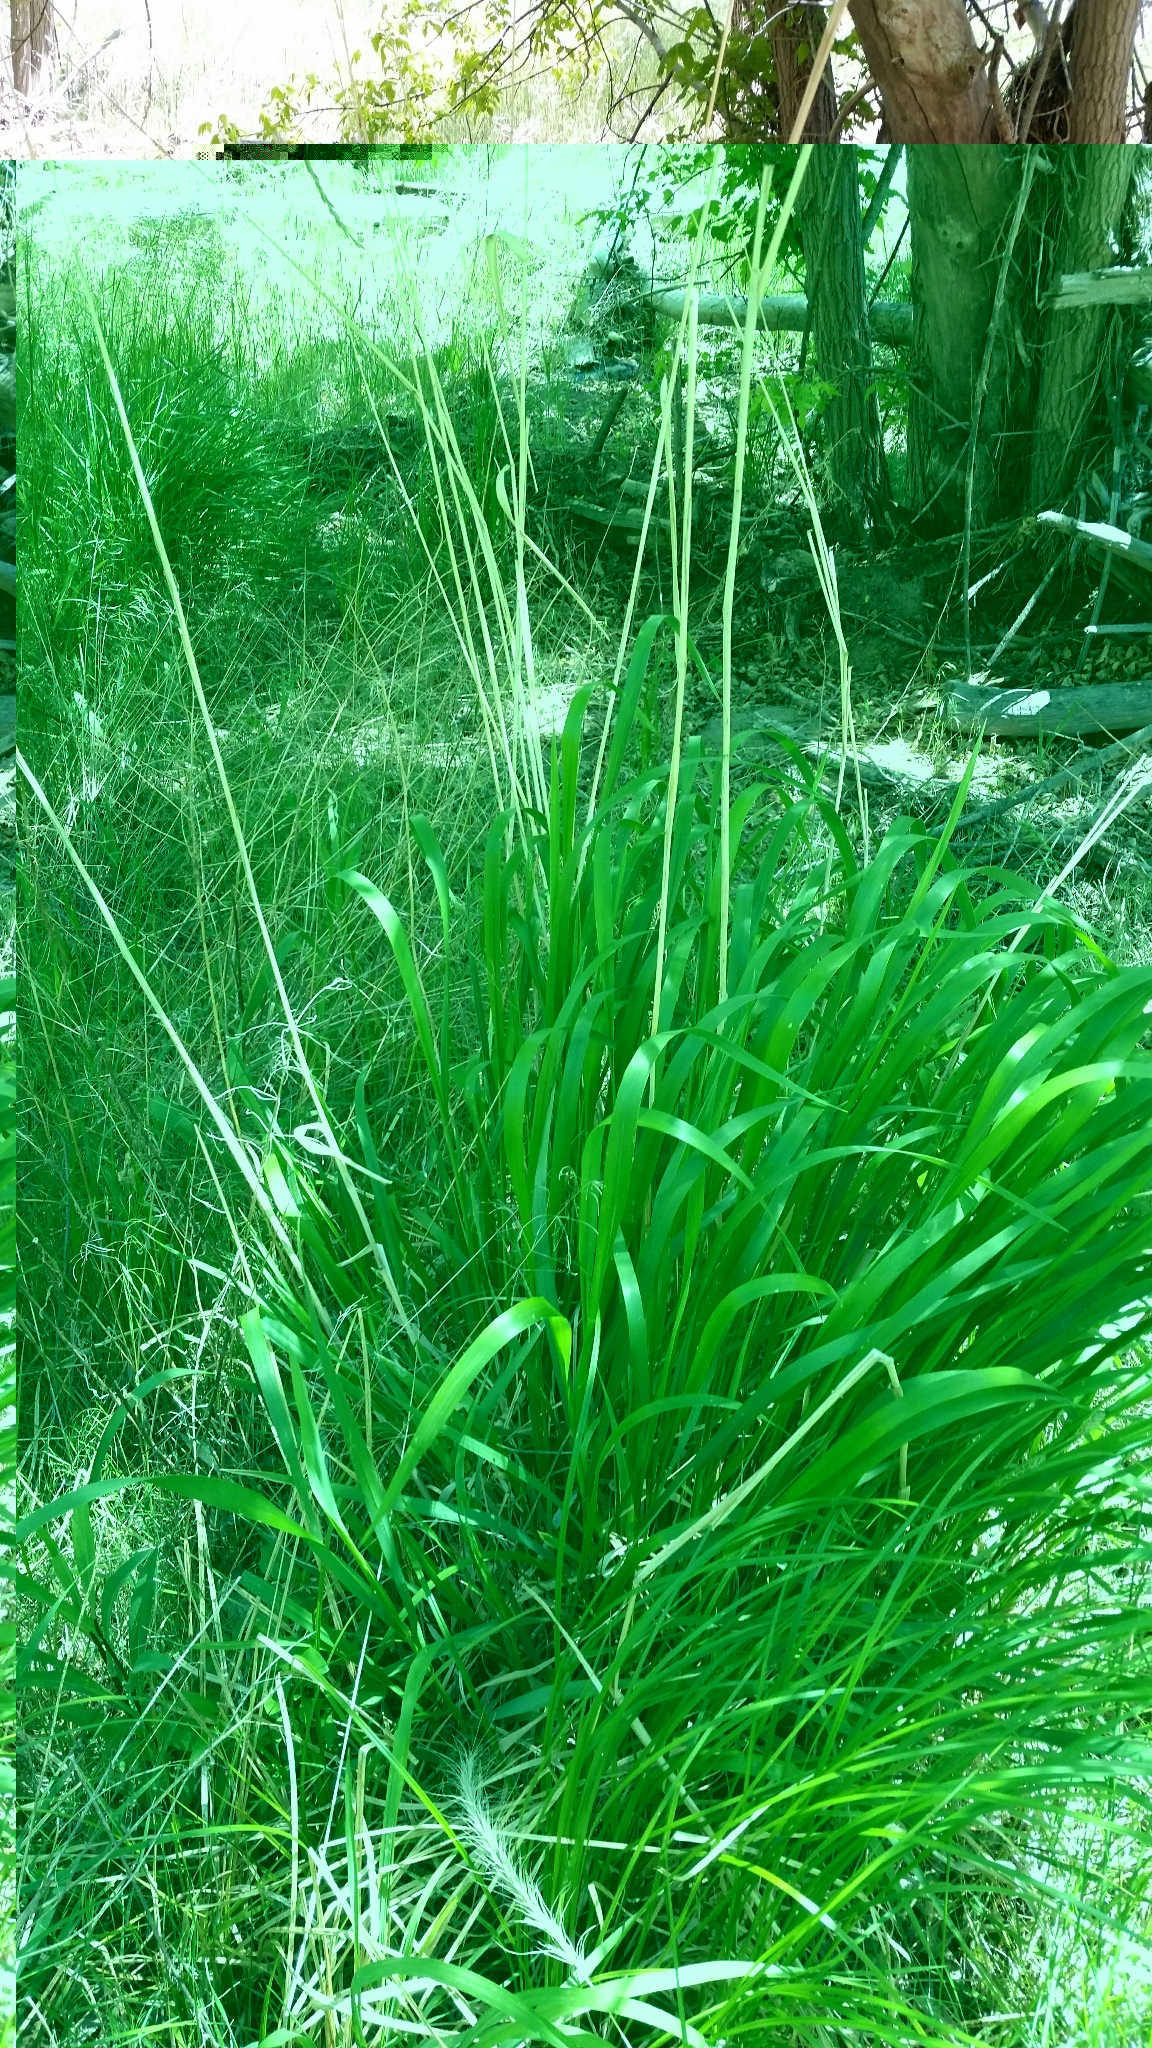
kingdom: Plantae
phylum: Tracheophyta
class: Liliopsida
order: Poales
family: Poaceae
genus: Elymus
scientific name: Elymus canadensis
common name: Canada wild rye
